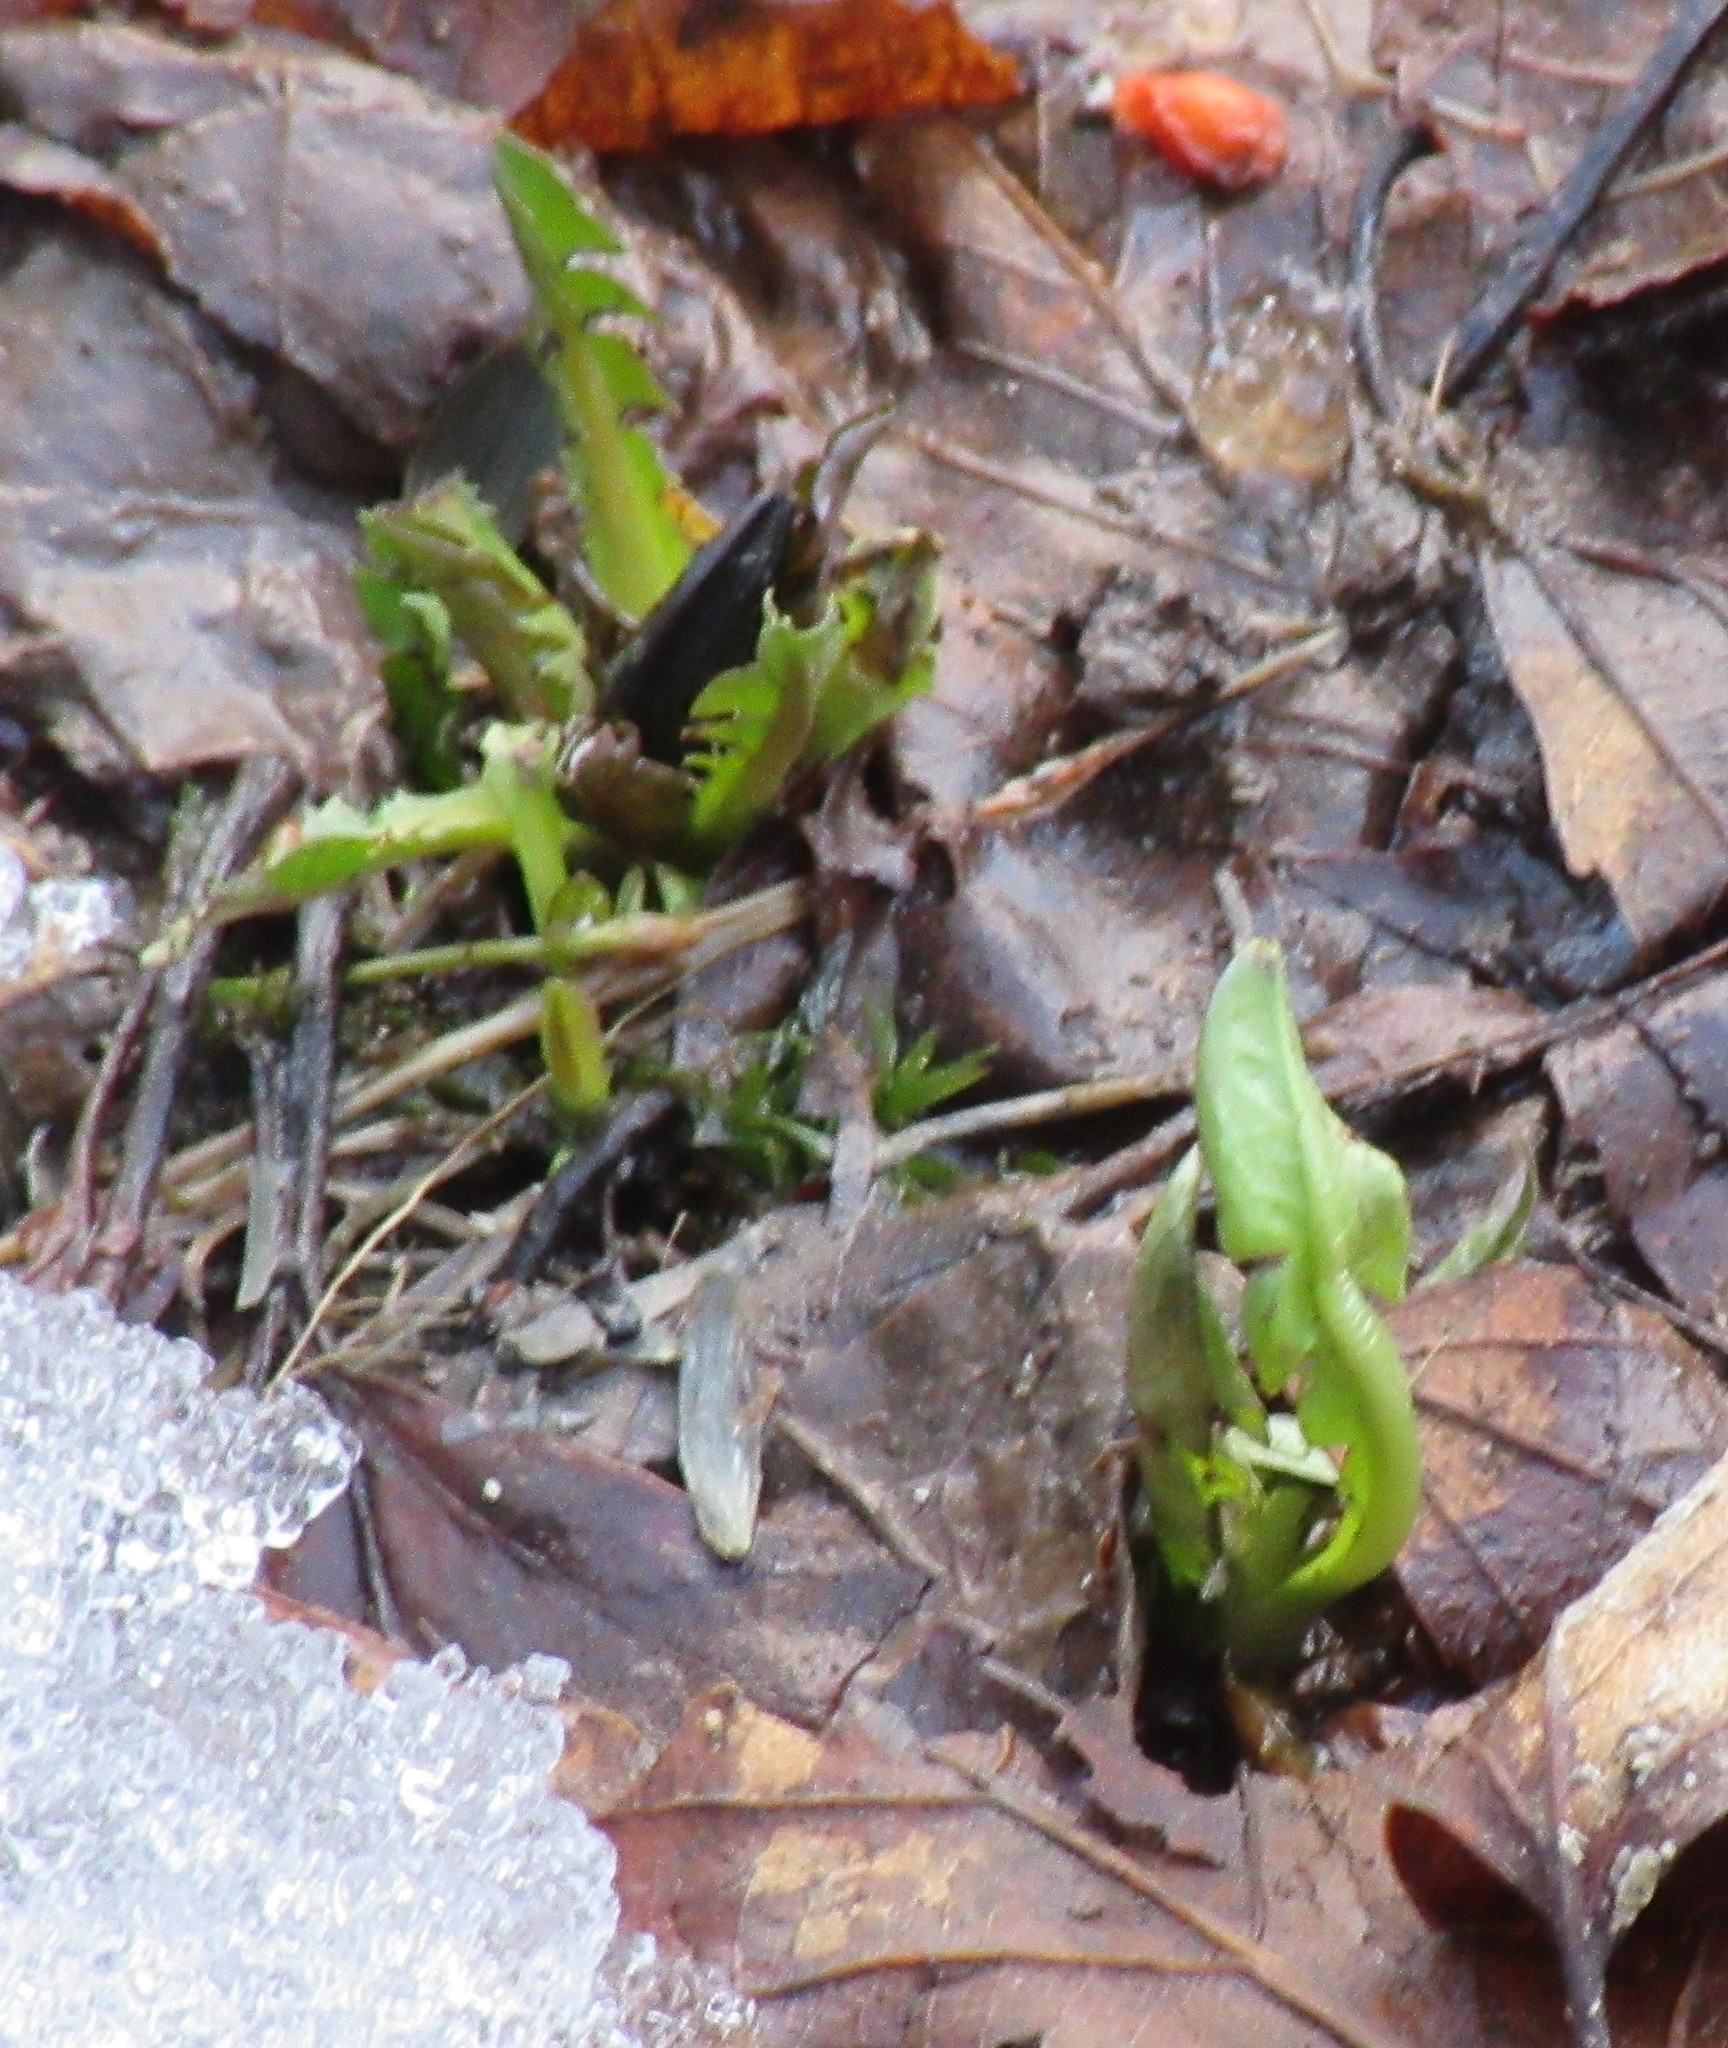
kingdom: Plantae
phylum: Tracheophyta
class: Magnoliopsida
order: Asterales
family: Asteraceae
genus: Taraxacum
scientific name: Taraxacum officinale
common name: Common dandelion
